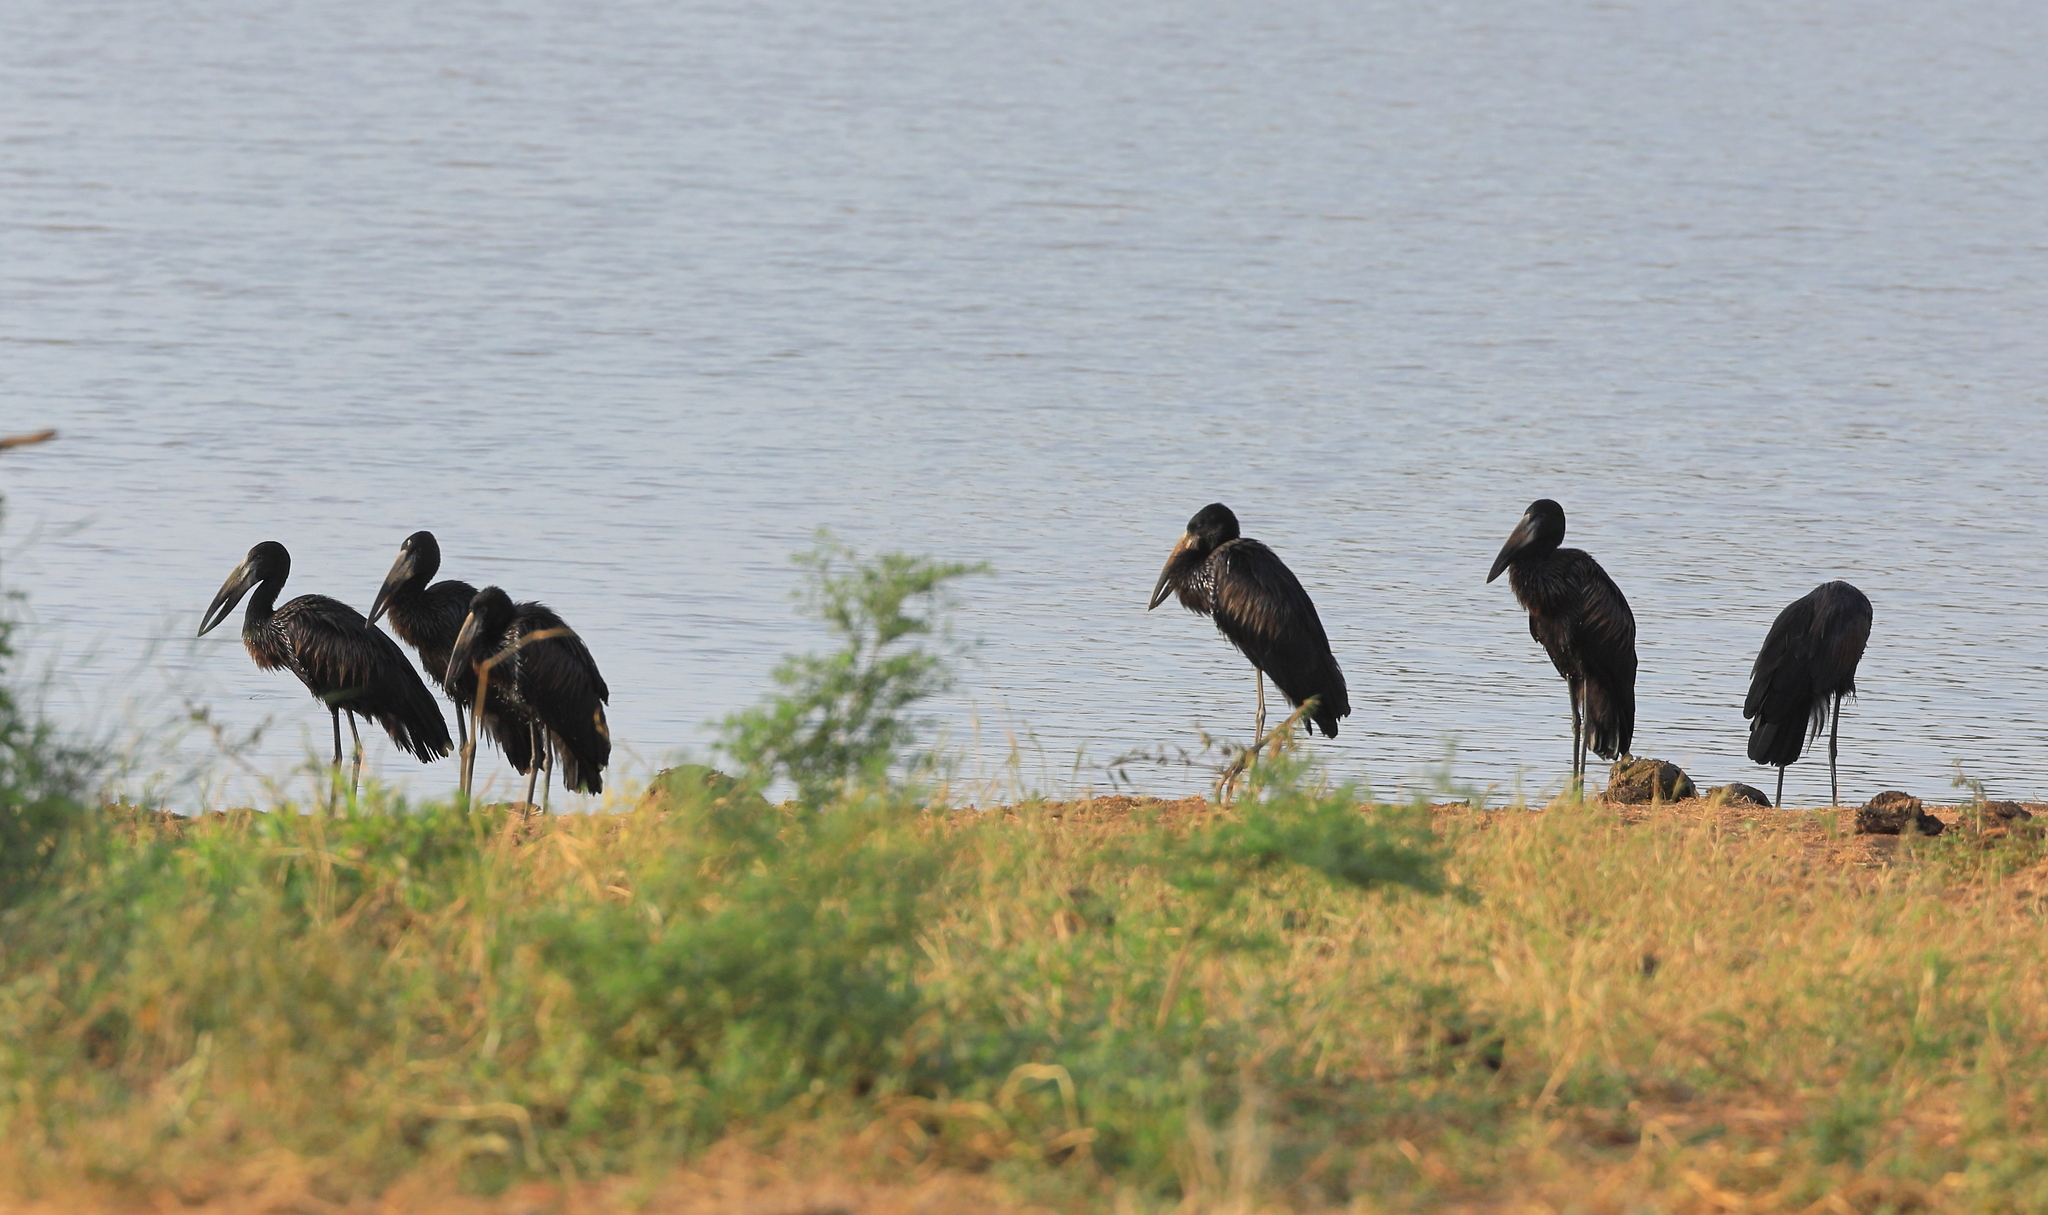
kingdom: Animalia
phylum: Chordata
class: Aves
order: Ciconiiformes
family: Ciconiidae
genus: Anastomus
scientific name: Anastomus lamelligerus
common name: African openbill
